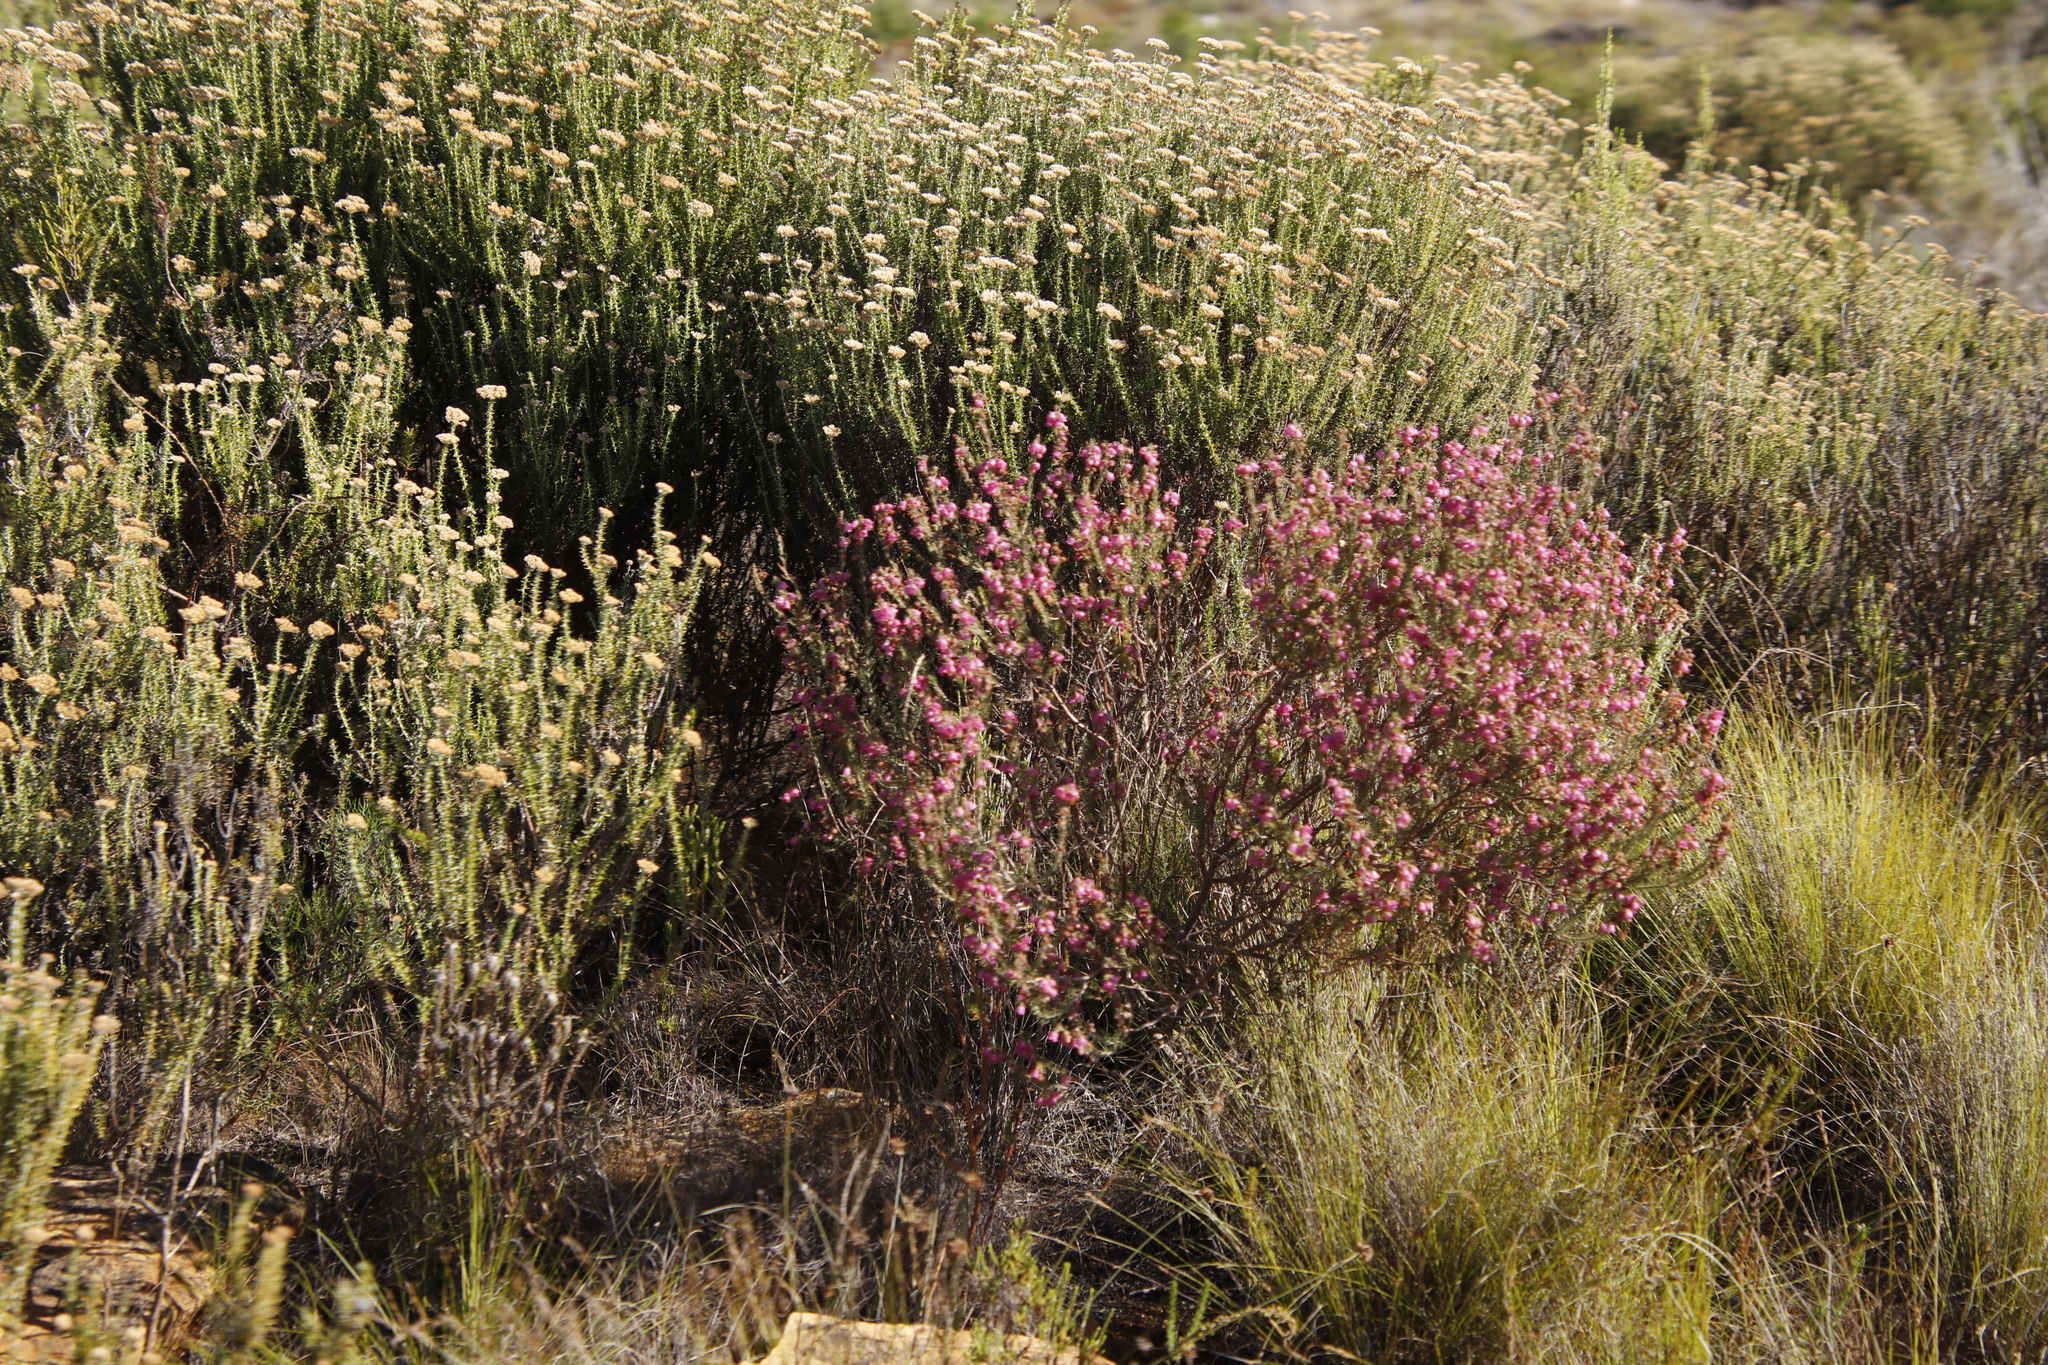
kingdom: Plantae
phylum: Tracheophyta
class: Magnoliopsida
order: Ericales
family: Ericaceae
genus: Erica
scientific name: Erica viscaria
